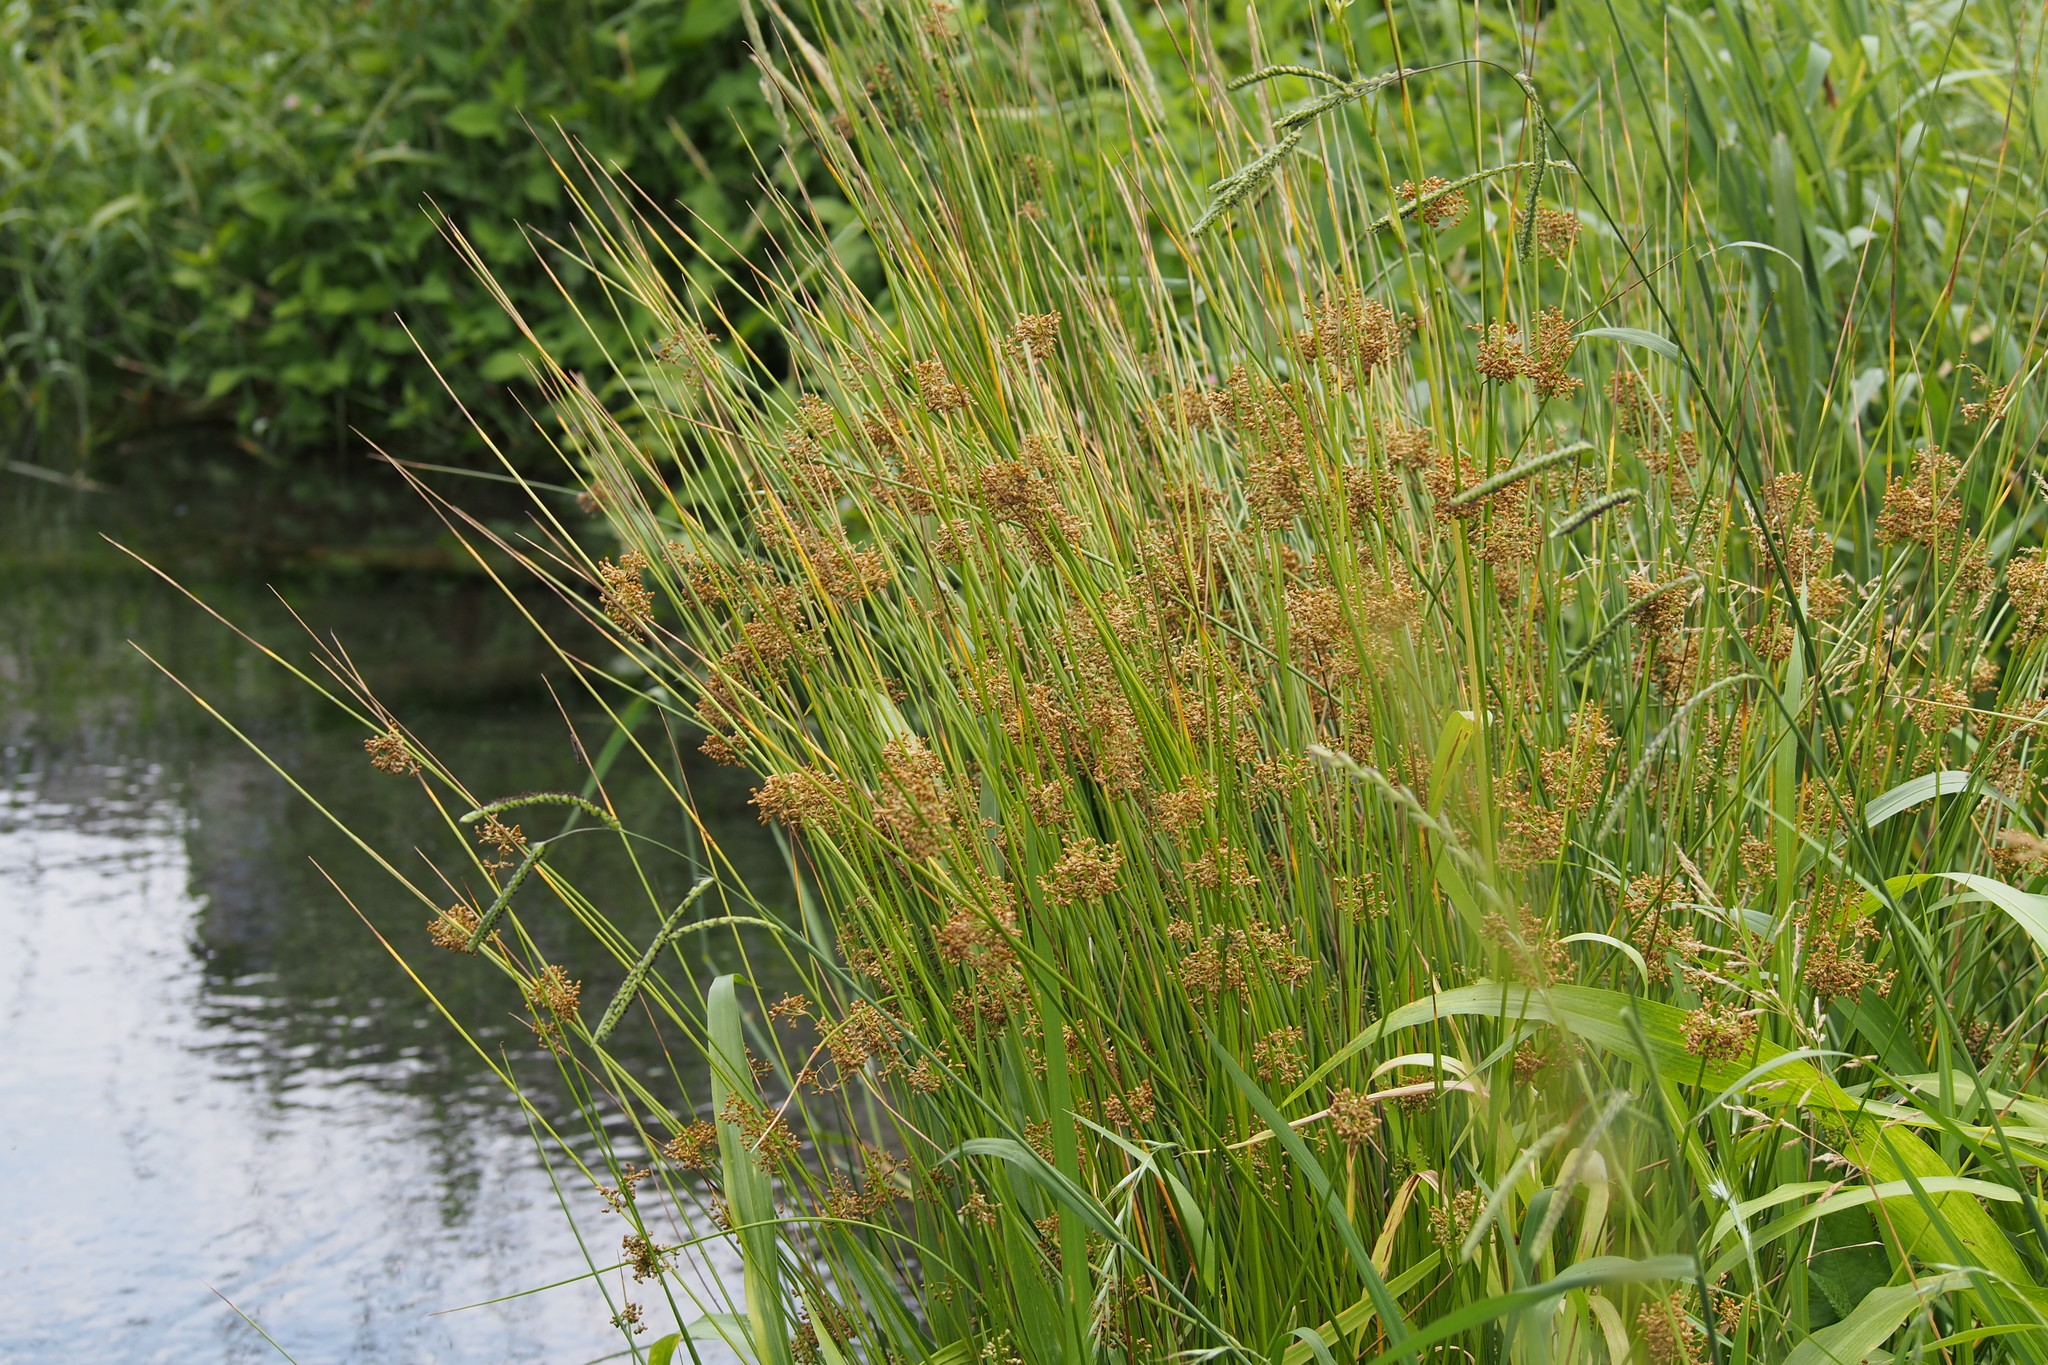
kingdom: Plantae
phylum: Tracheophyta
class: Liliopsida
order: Poales
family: Juncaceae
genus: Juncus
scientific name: Juncus decipiens
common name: Lamp rush
